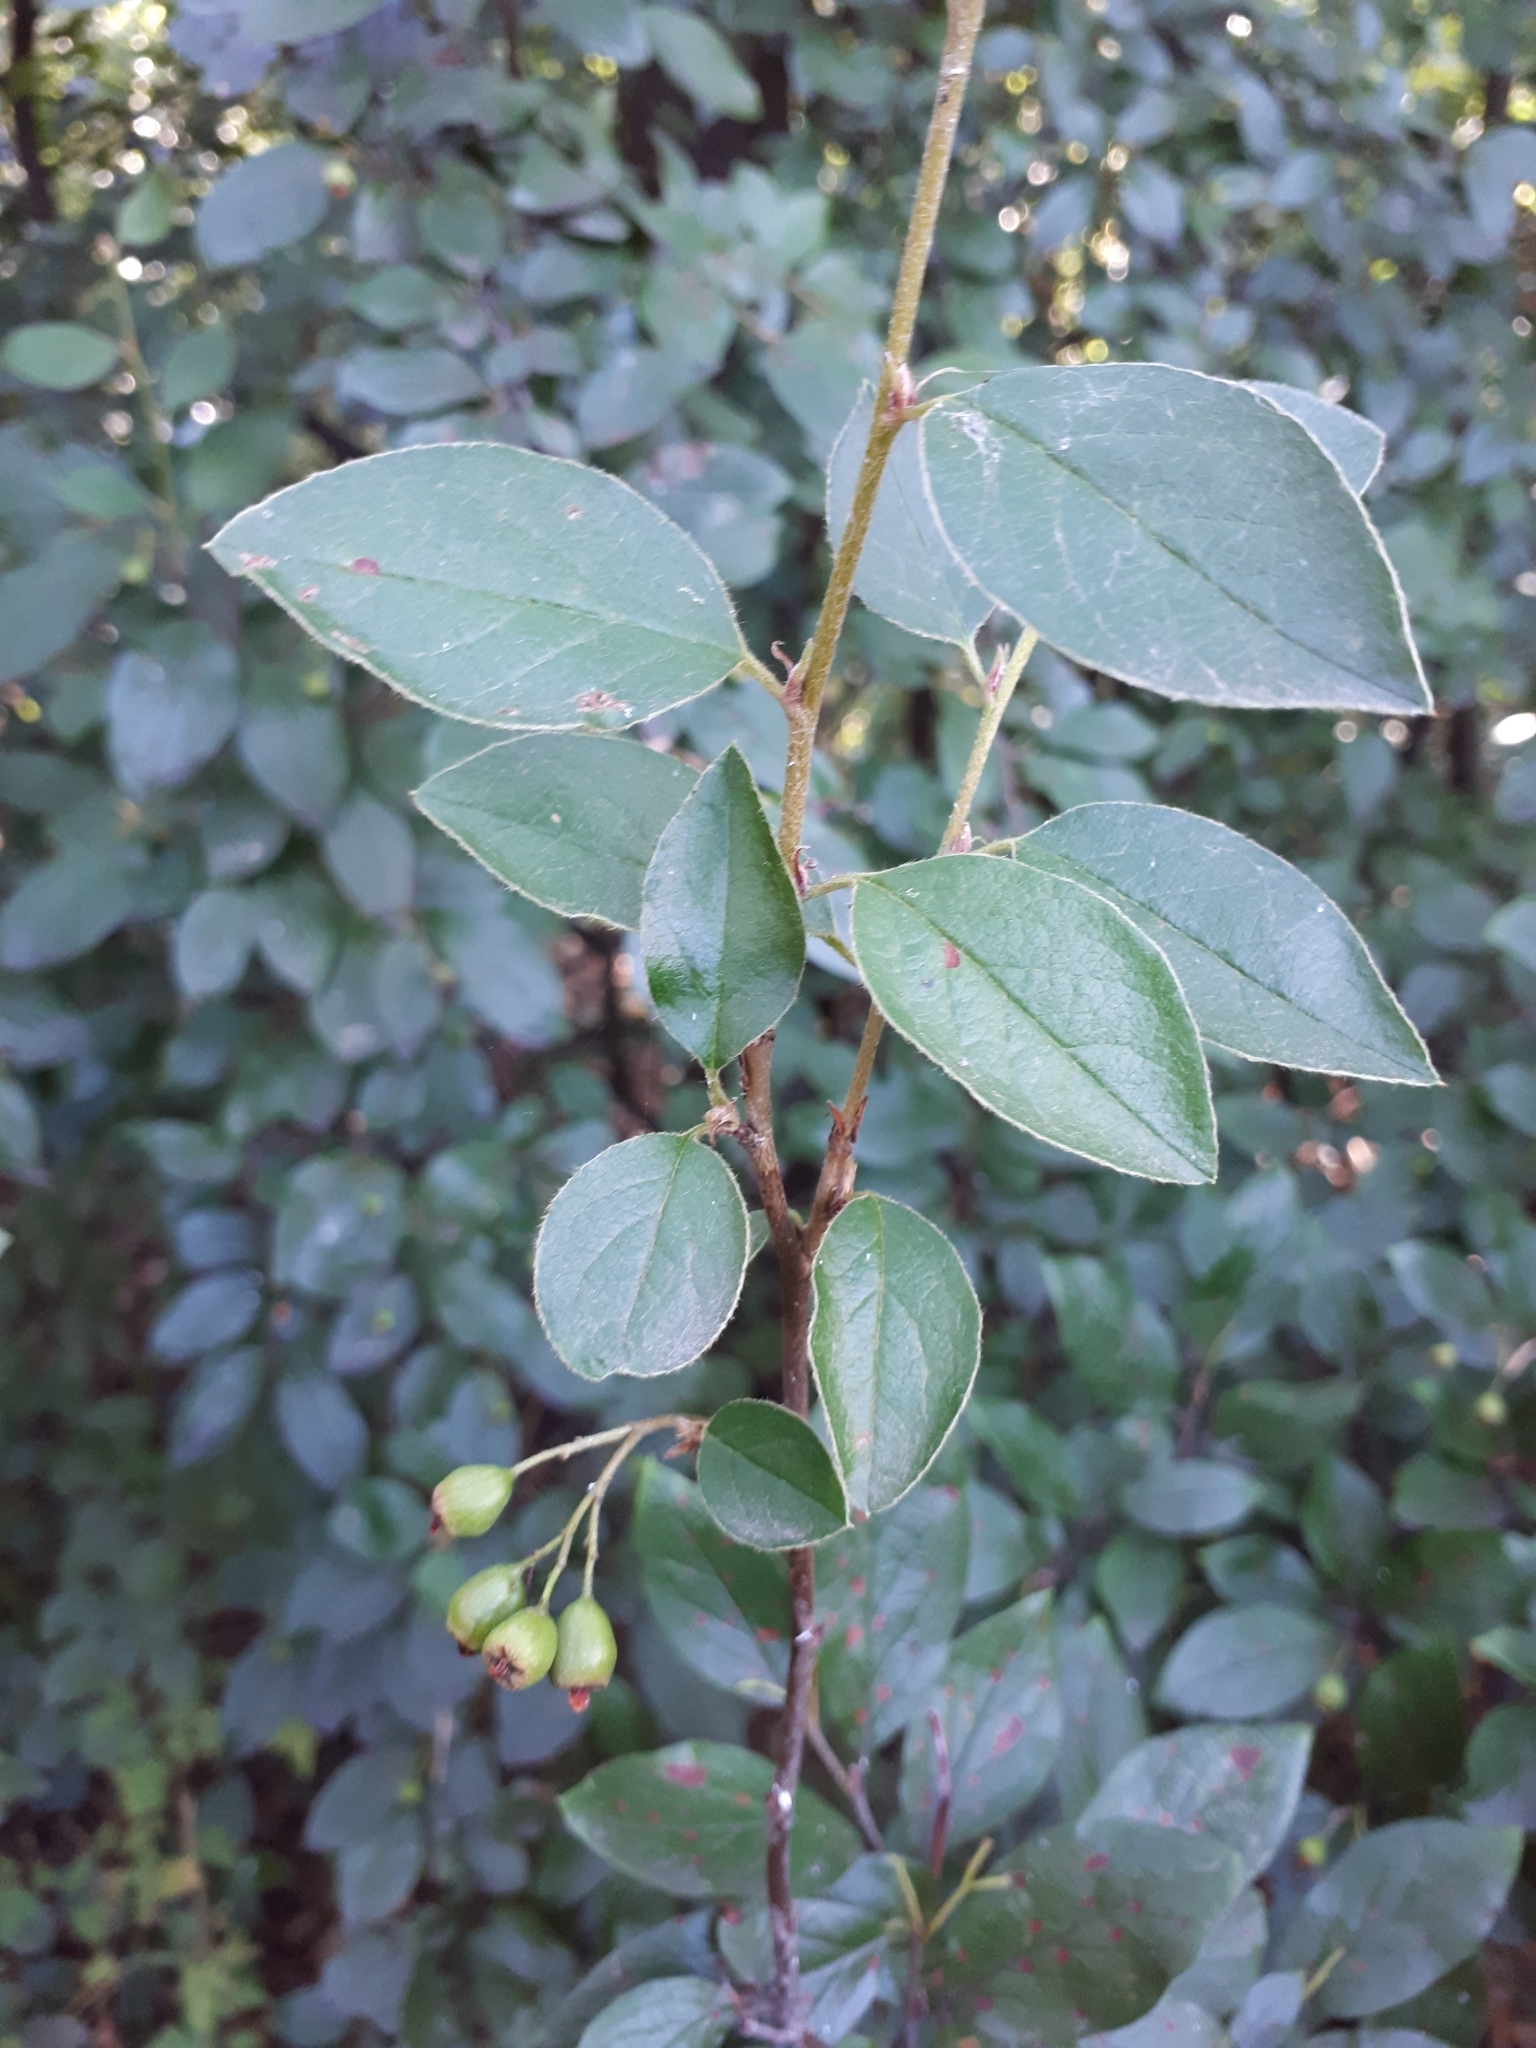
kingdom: Plantae
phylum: Tracheophyta
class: Magnoliopsida
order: Rosales
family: Rosaceae
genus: Cotoneaster
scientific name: Cotoneaster acutifolius
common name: Peking cotoneaster
